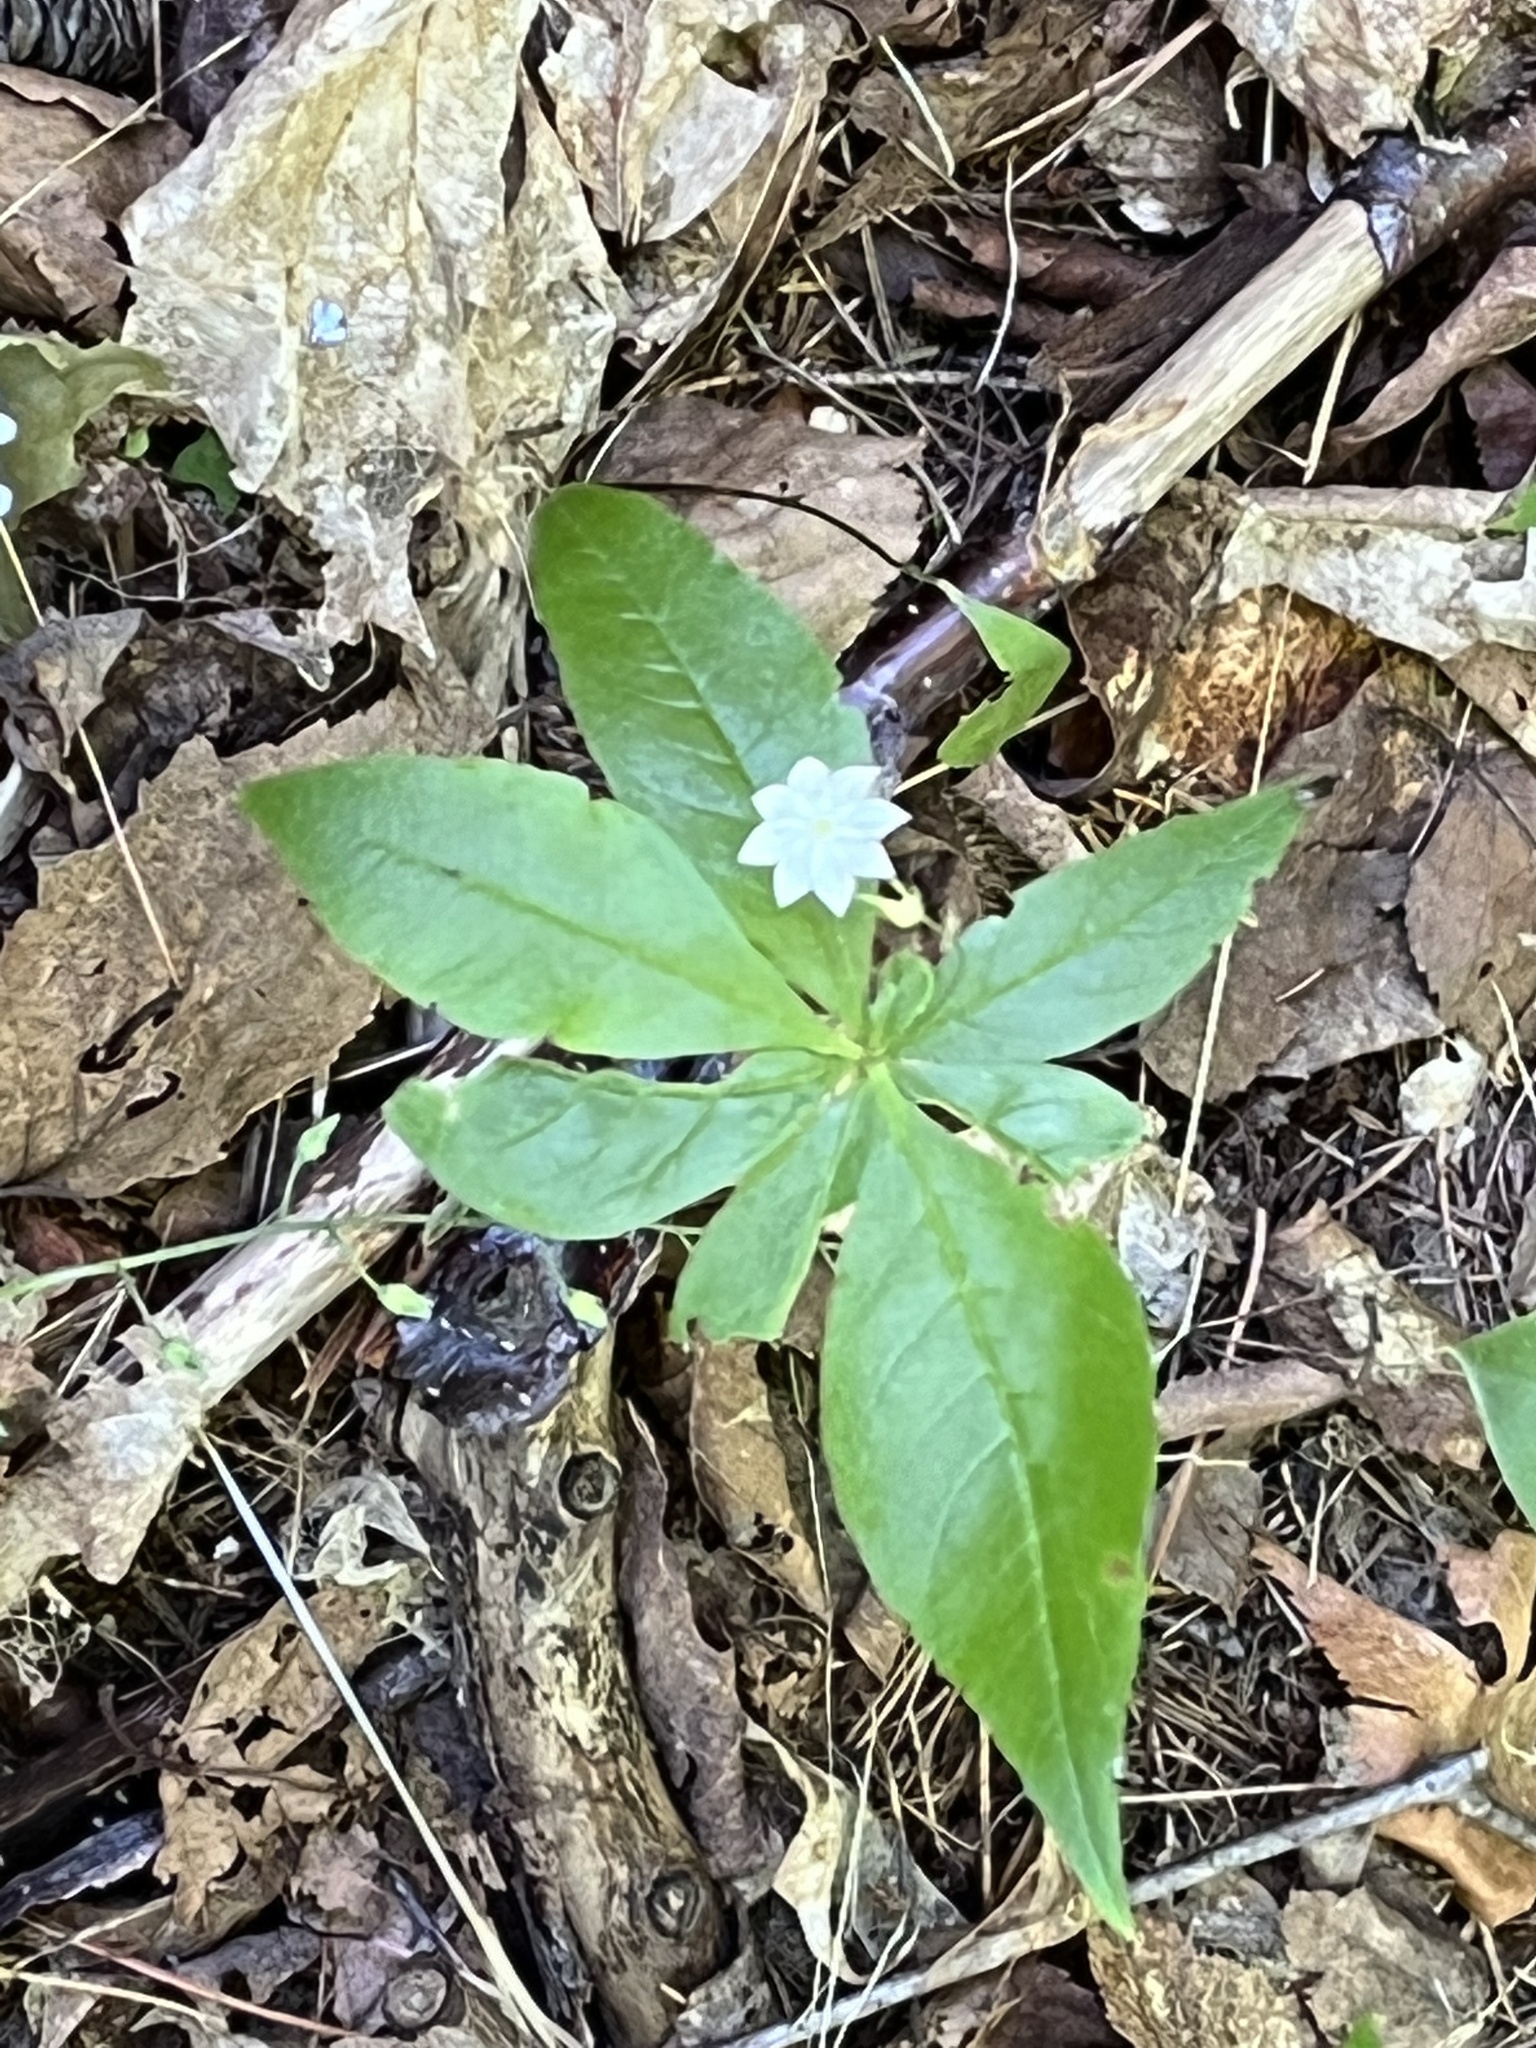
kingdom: Plantae
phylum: Tracheophyta
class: Magnoliopsida
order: Ericales
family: Primulaceae
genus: Lysimachia
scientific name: Lysimachia borealis
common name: American starflower
